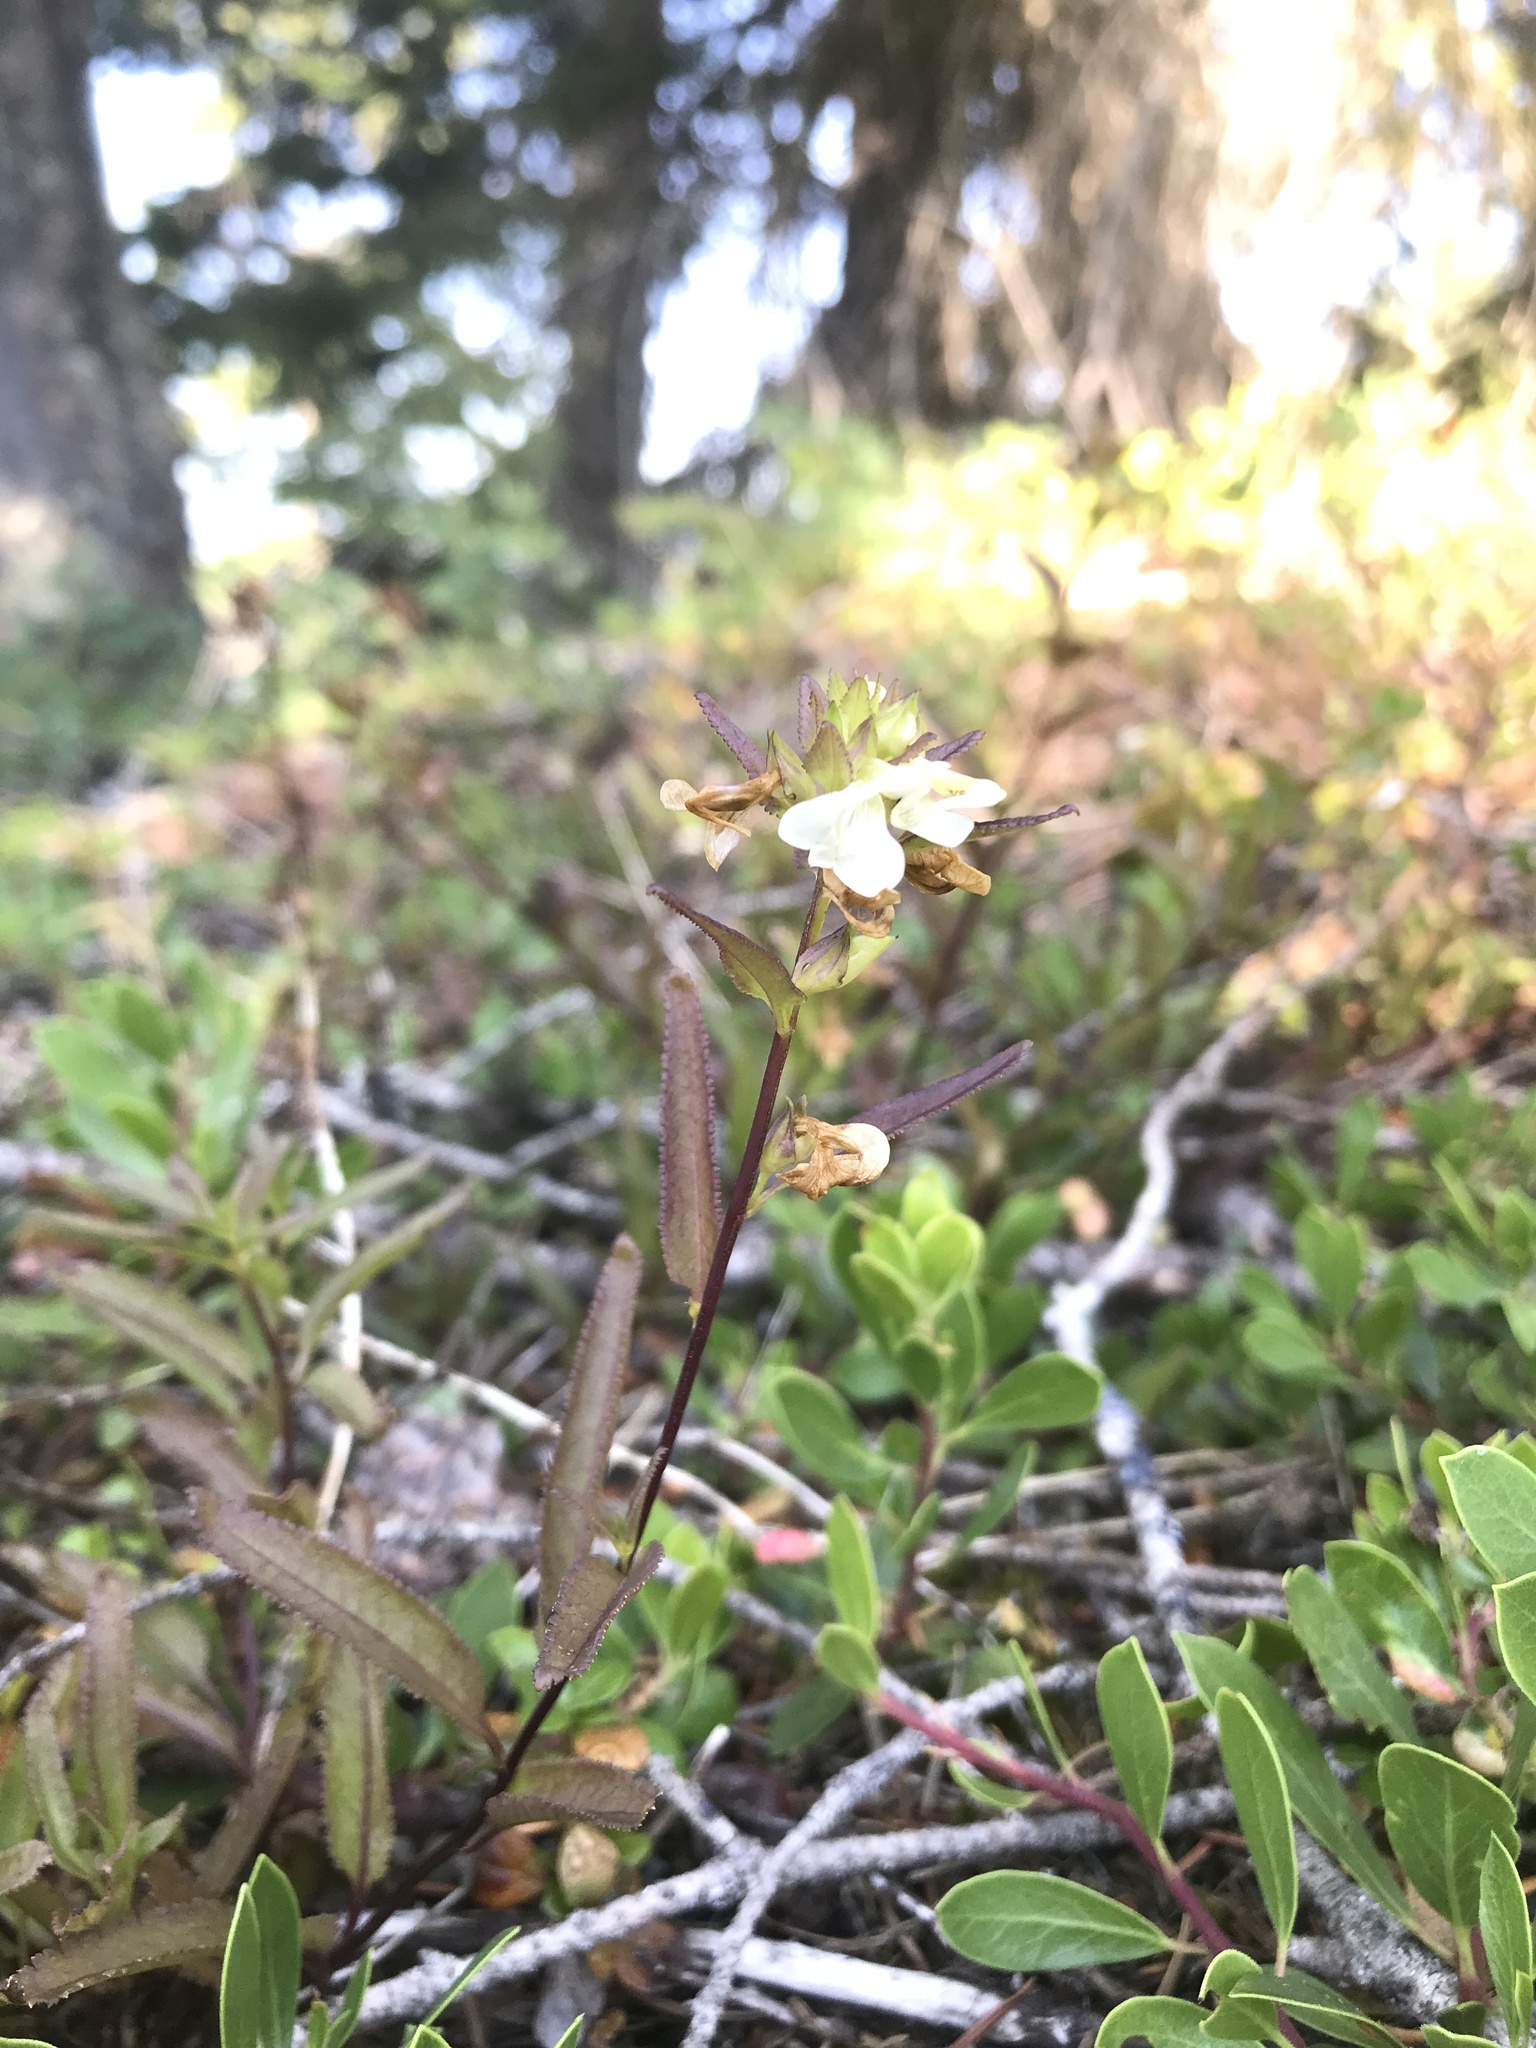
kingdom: Plantae
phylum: Tracheophyta
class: Magnoliopsida
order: Lamiales
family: Orobanchaceae
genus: Pedicularis
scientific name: Pedicularis racemosa
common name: Leafy lousewort
